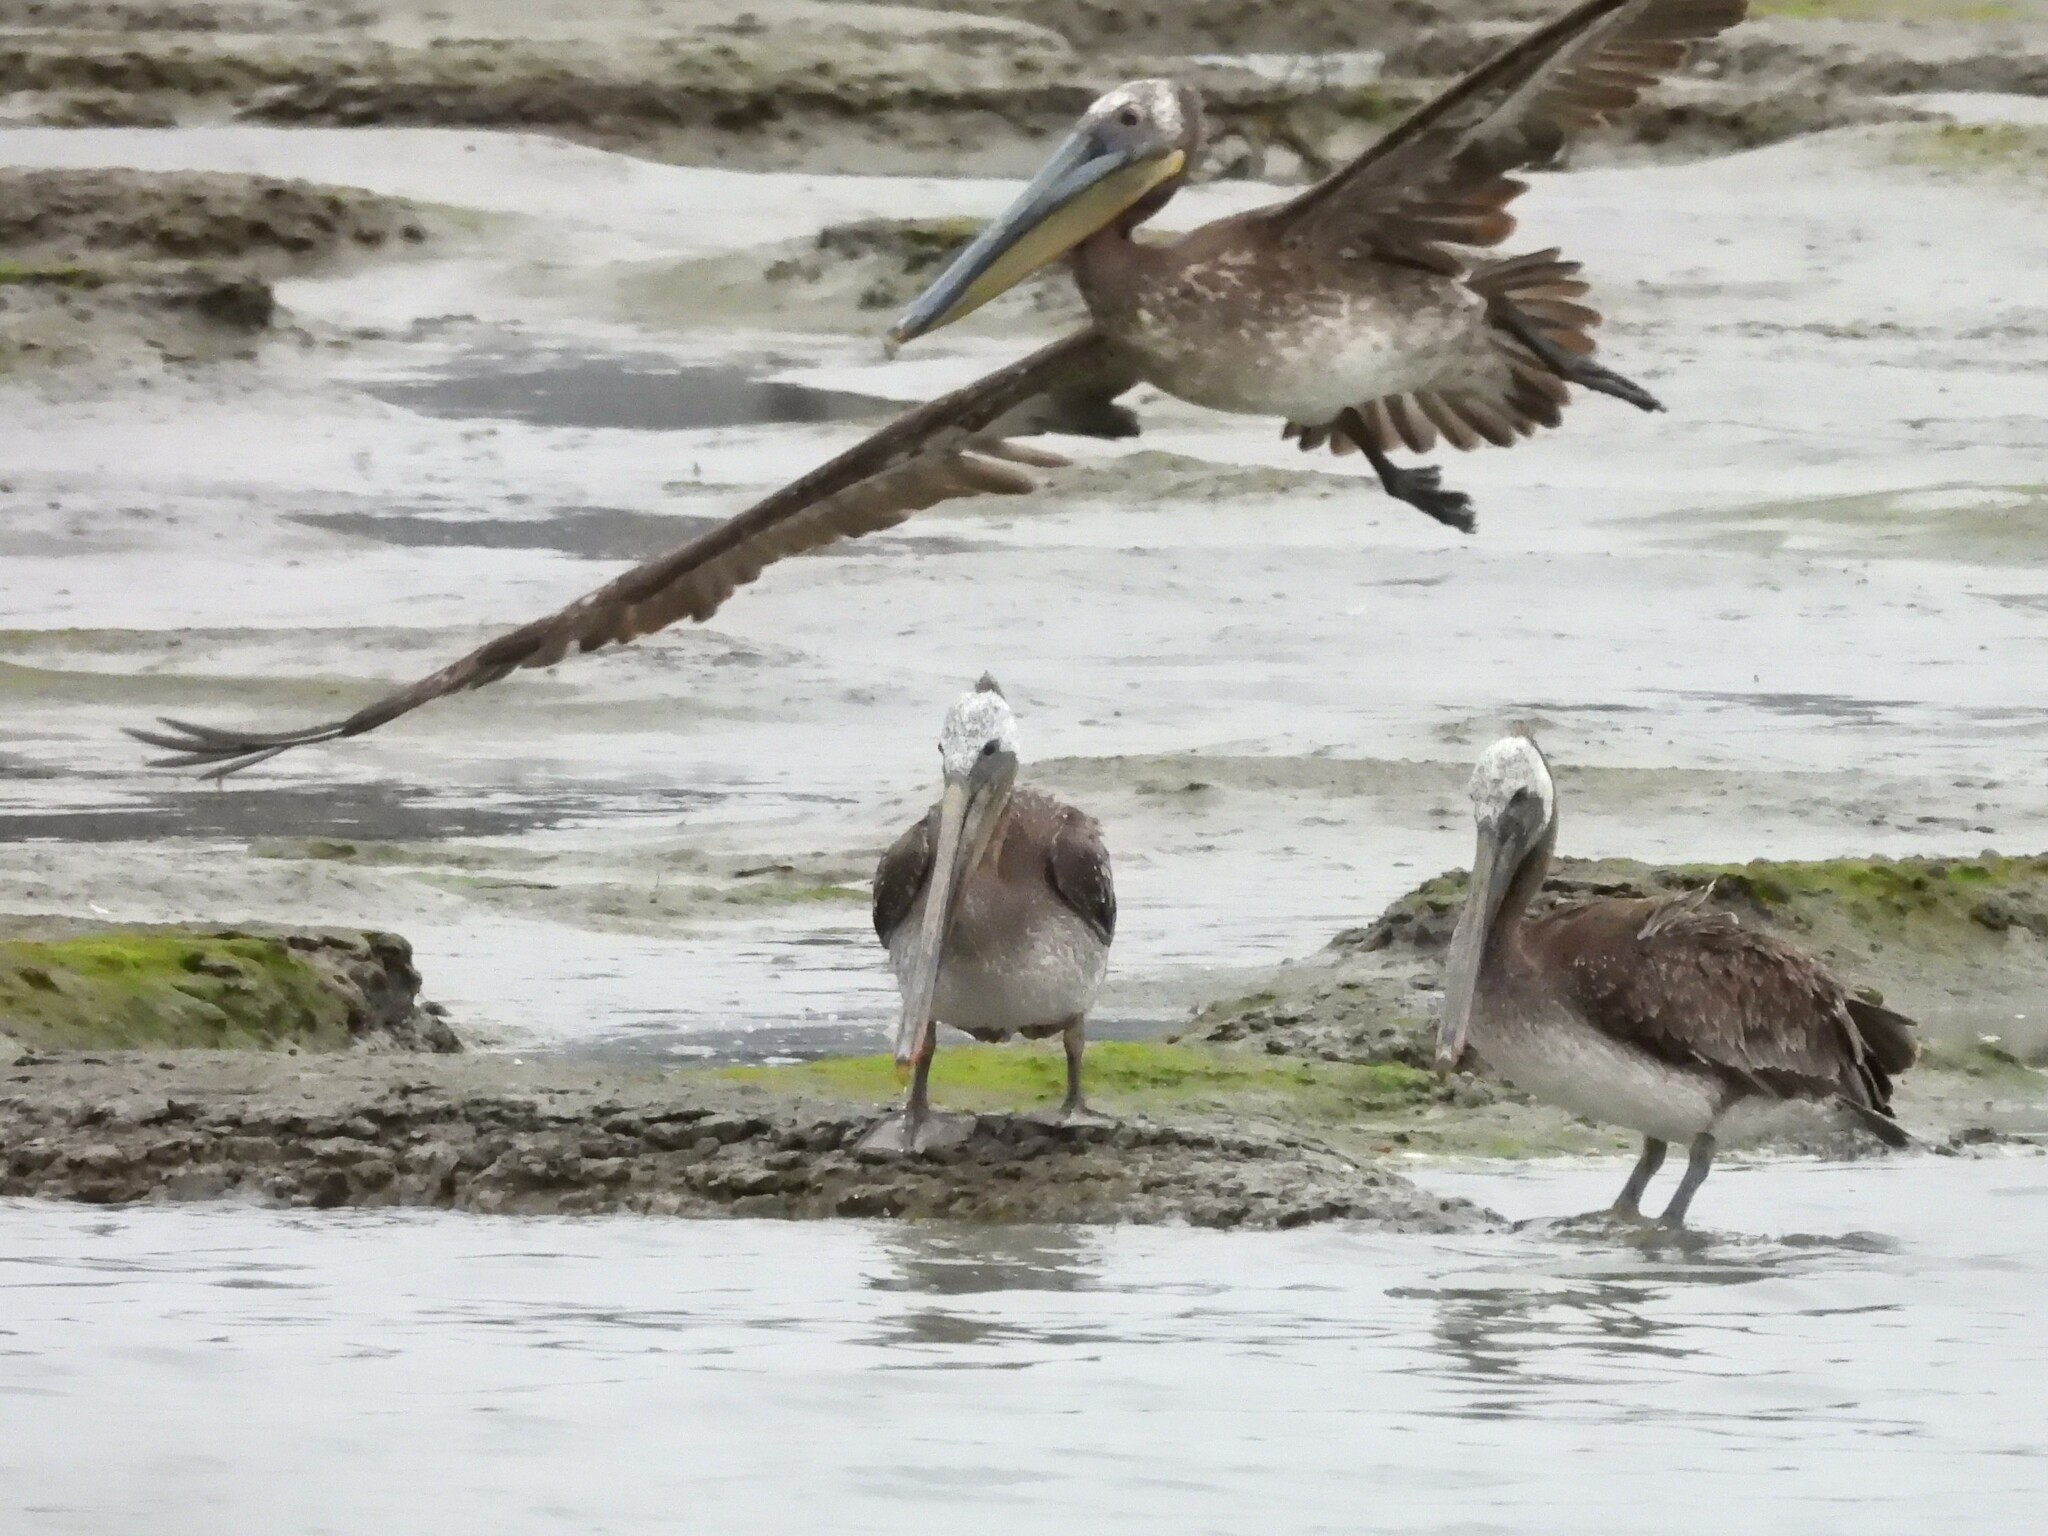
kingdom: Animalia
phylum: Chordata
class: Aves
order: Pelecaniformes
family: Pelecanidae
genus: Pelecanus
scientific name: Pelecanus occidentalis
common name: Brown pelican
